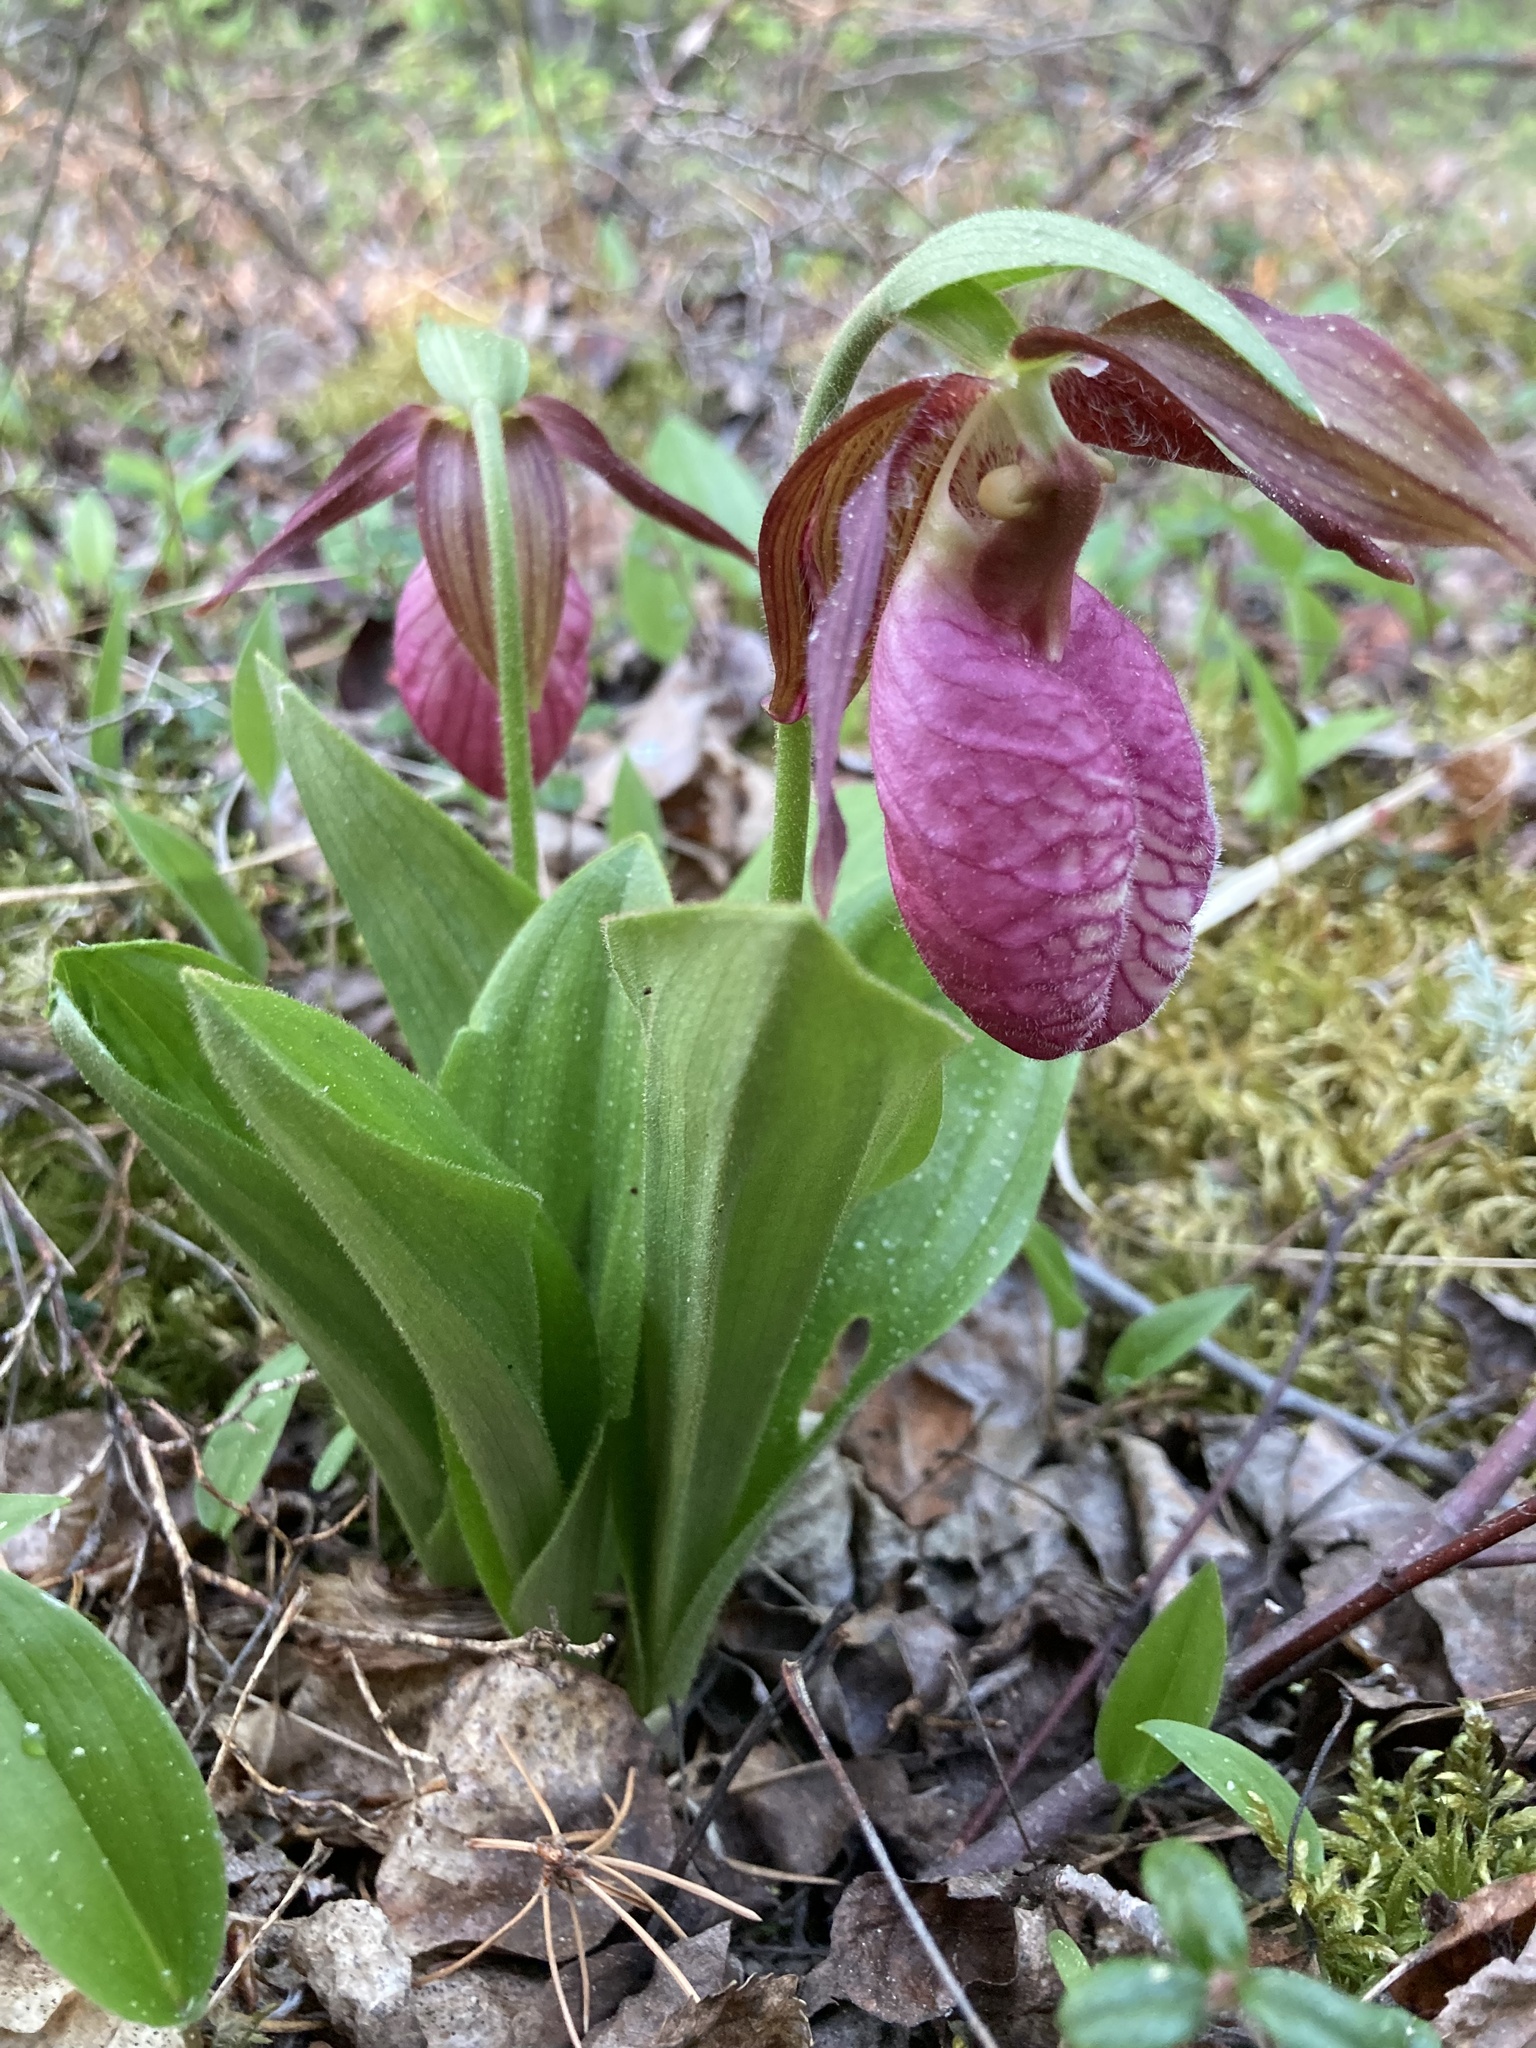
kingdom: Plantae
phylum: Tracheophyta
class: Liliopsida
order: Asparagales
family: Orchidaceae
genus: Cypripedium
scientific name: Cypripedium acaule
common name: Pink lady's-slipper
